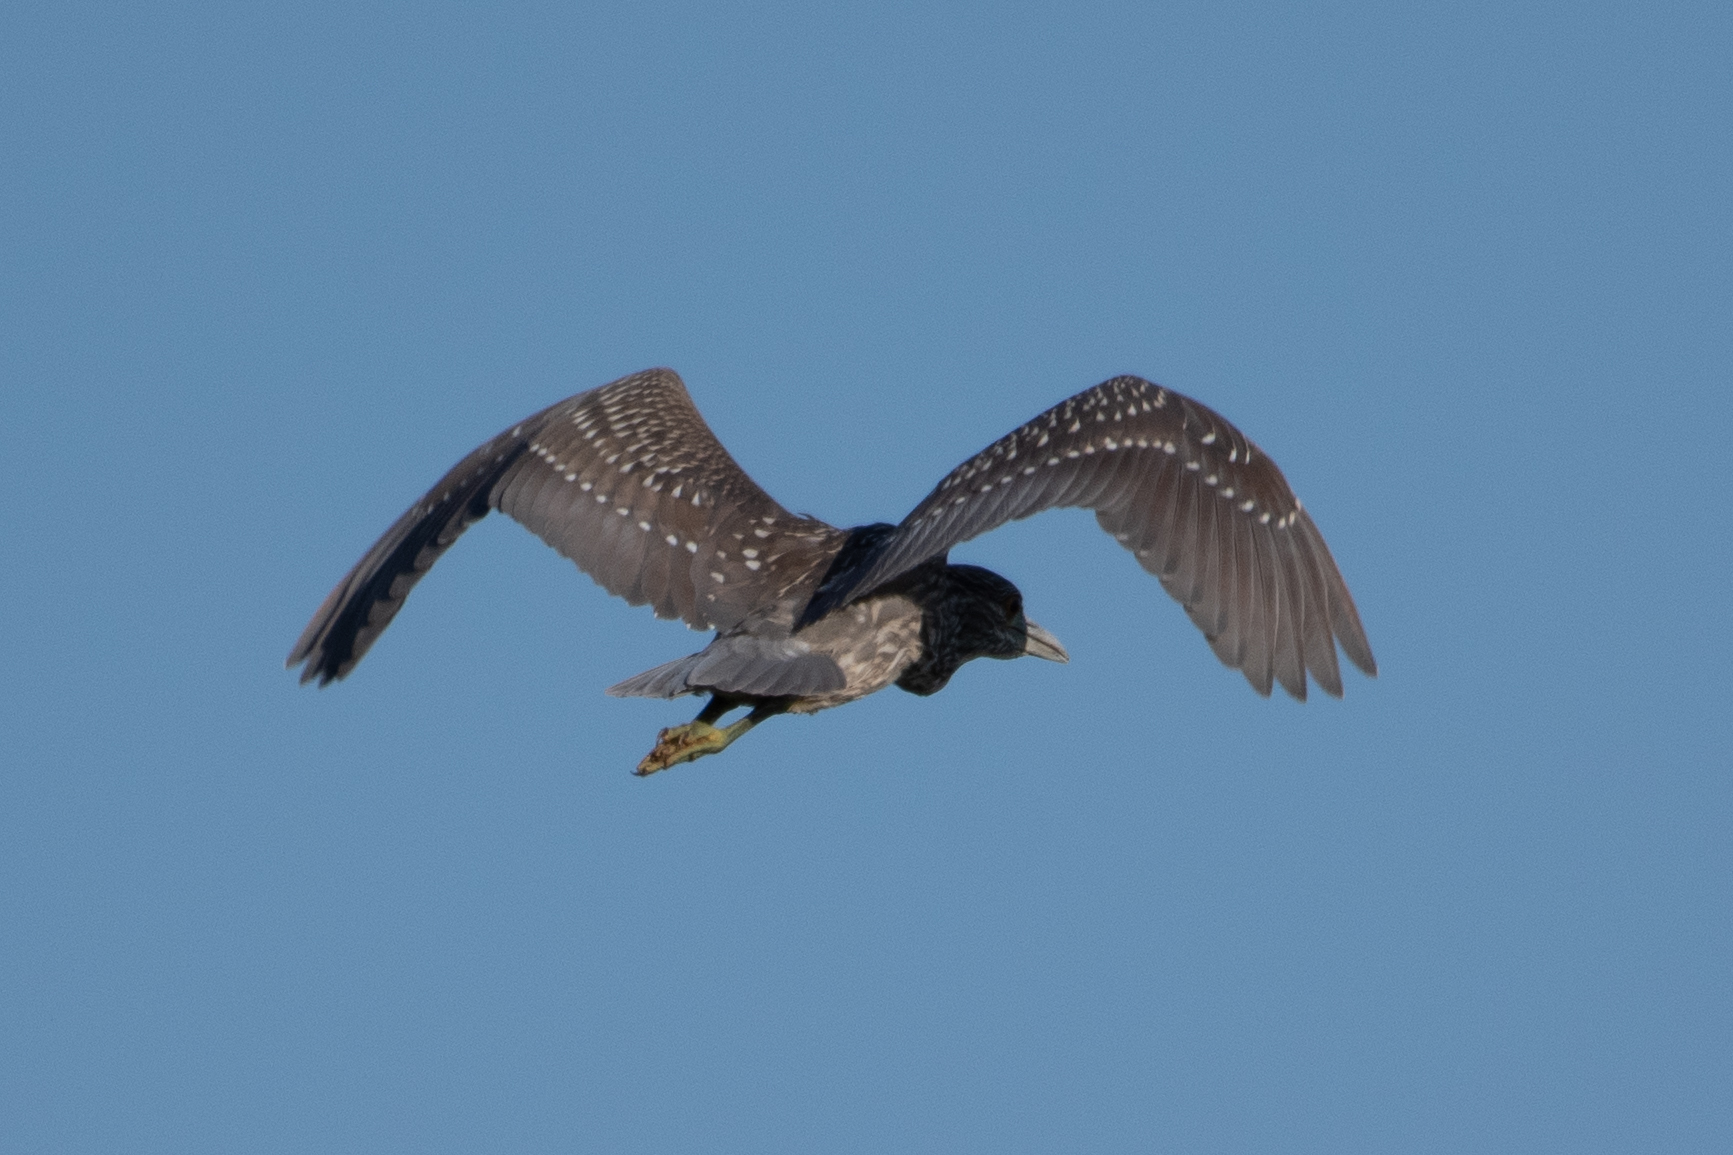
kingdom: Animalia
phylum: Chordata
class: Aves
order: Pelecaniformes
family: Ardeidae
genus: Nycticorax
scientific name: Nycticorax nycticorax
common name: Black-crowned night heron
